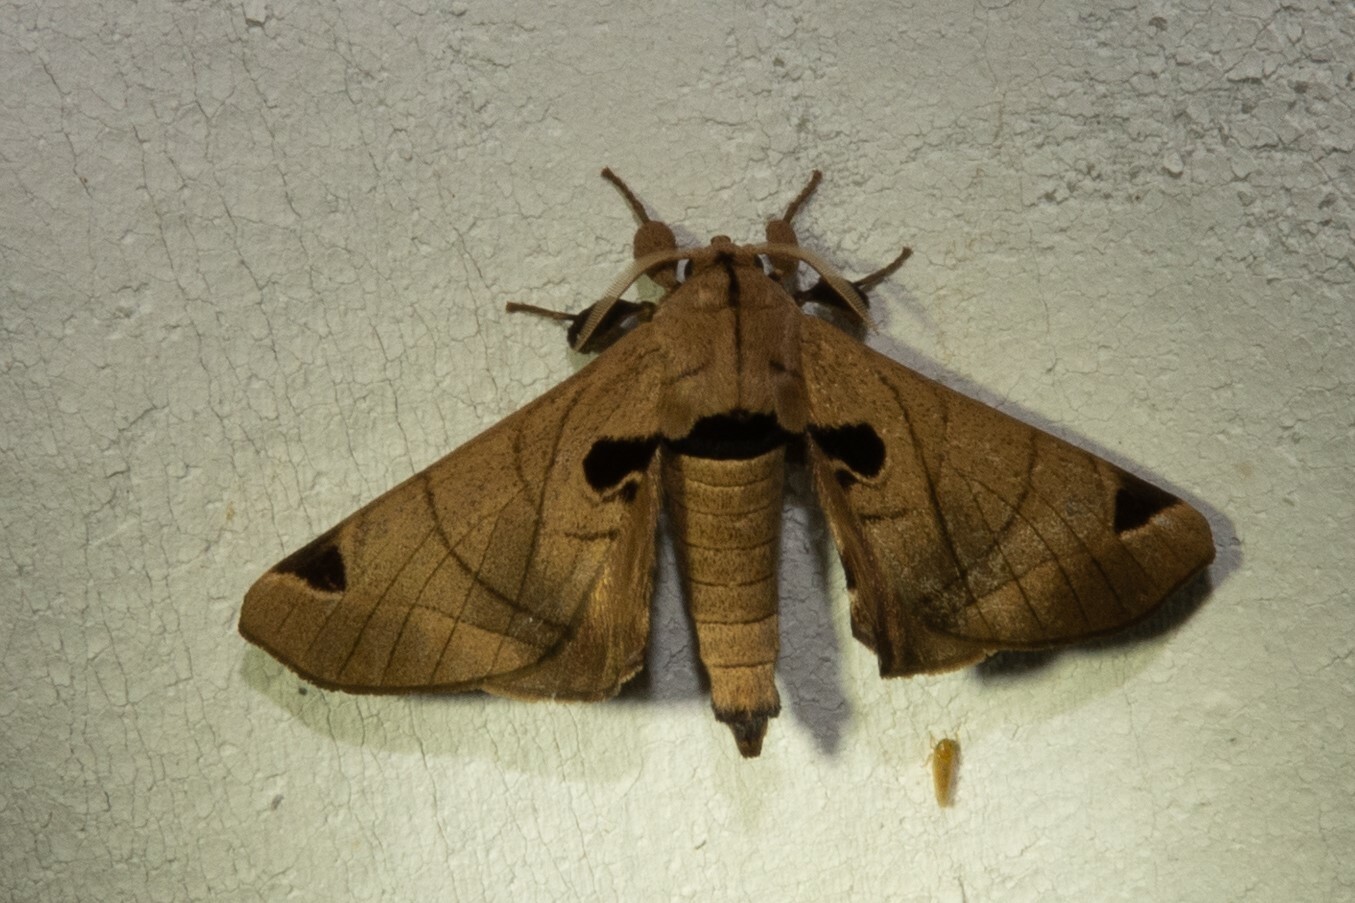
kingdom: Animalia
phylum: Arthropoda
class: Insecta
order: Lepidoptera
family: Apatelodidae
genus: Hygrochroa
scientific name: Hygrochroa Apatelodes pandarioides
